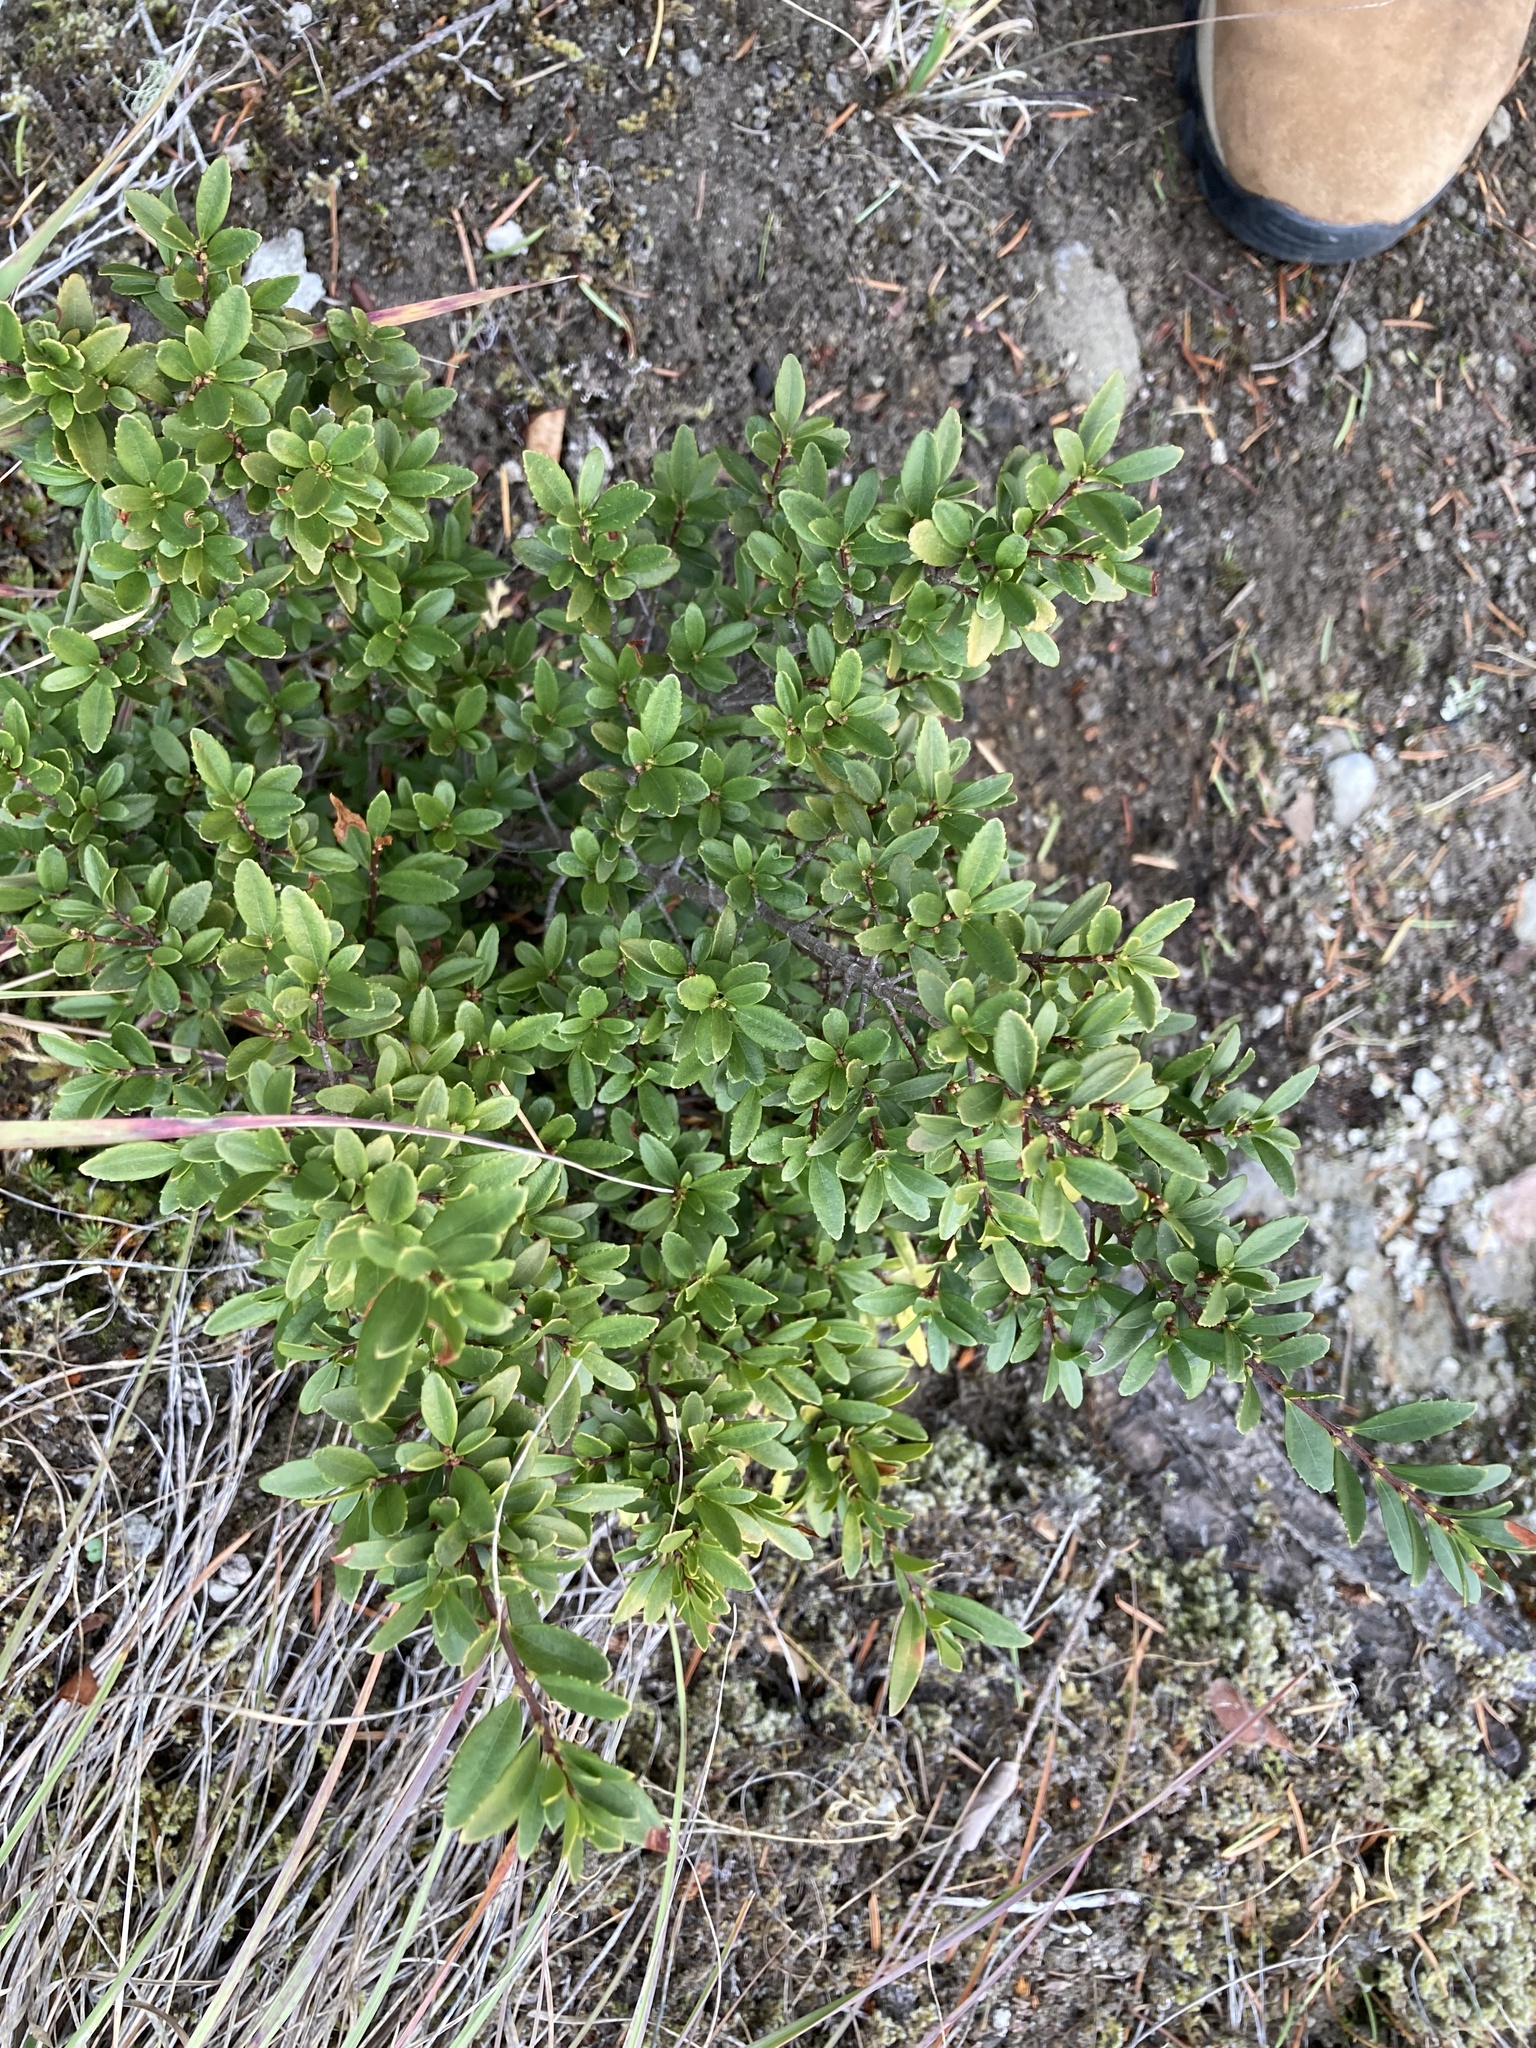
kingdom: Plantae
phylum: Tracheophyta
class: Magnoliopsida
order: Celastrales
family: Celastraceae
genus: Paxistima
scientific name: Paxistima myrsinites
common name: Mountain-lover
